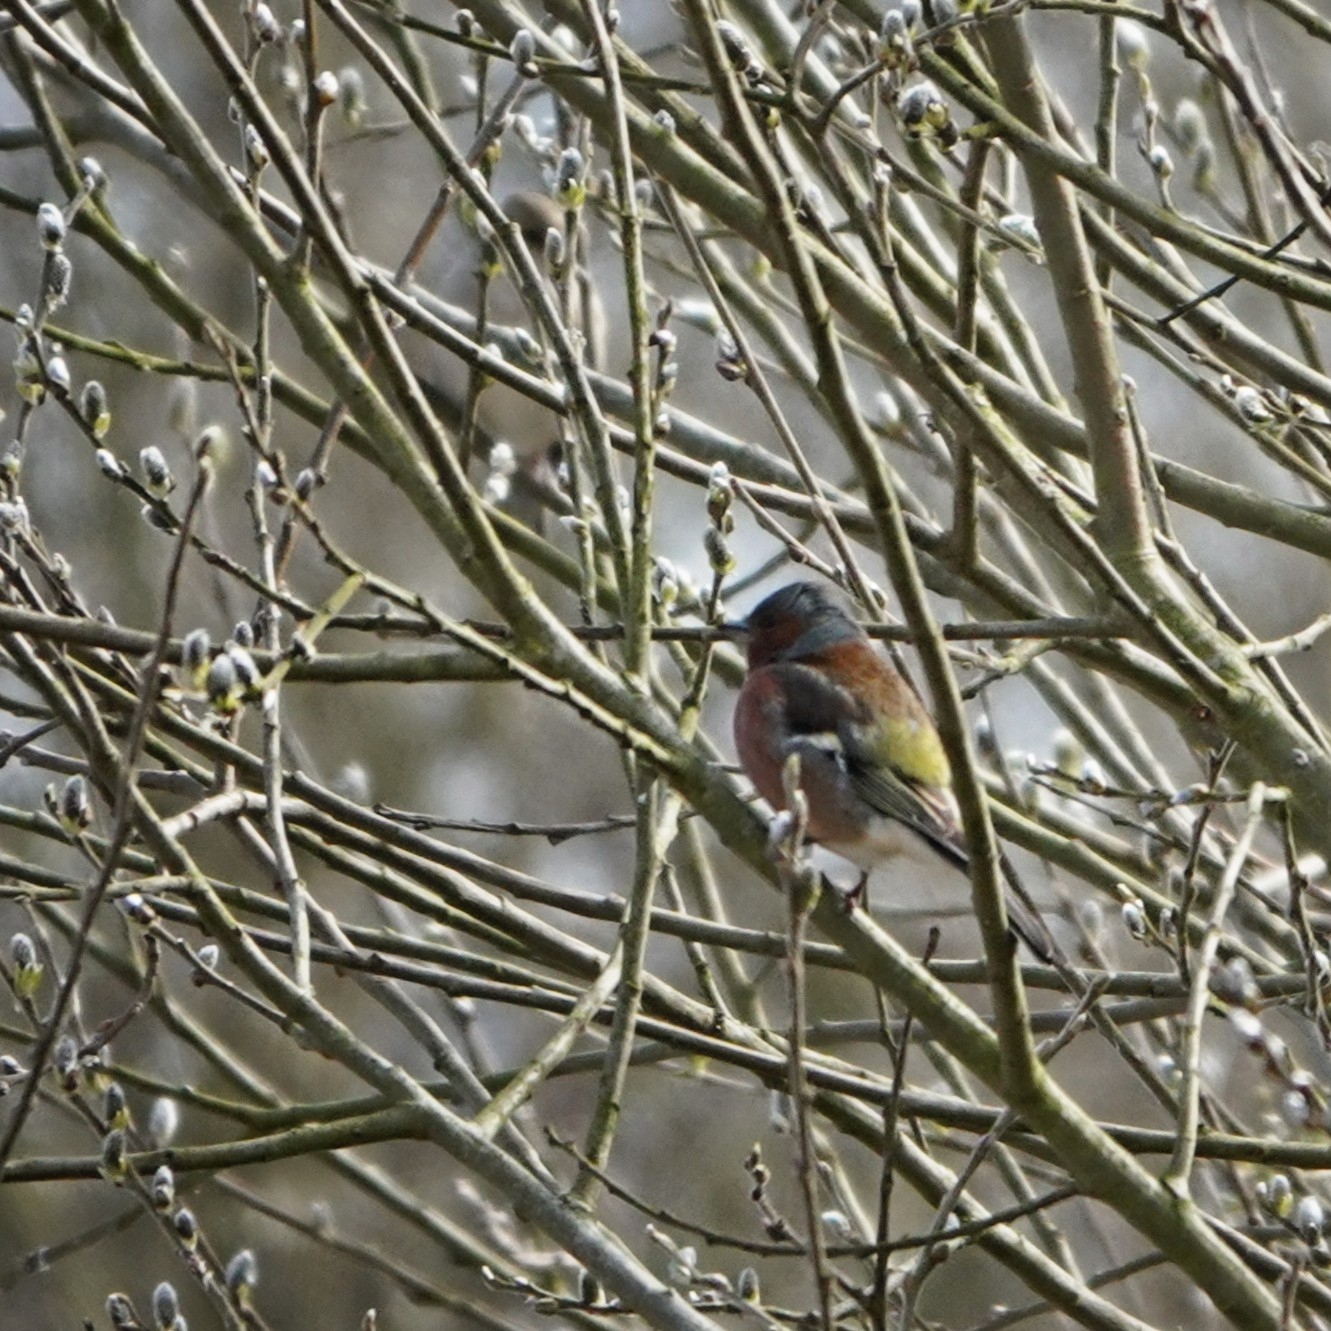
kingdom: Animalia
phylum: Chordata
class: Aves
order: Passeriformes
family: Fringillidae
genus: Fringilla
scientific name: Fringilla coelebs
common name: Common chaffinch
